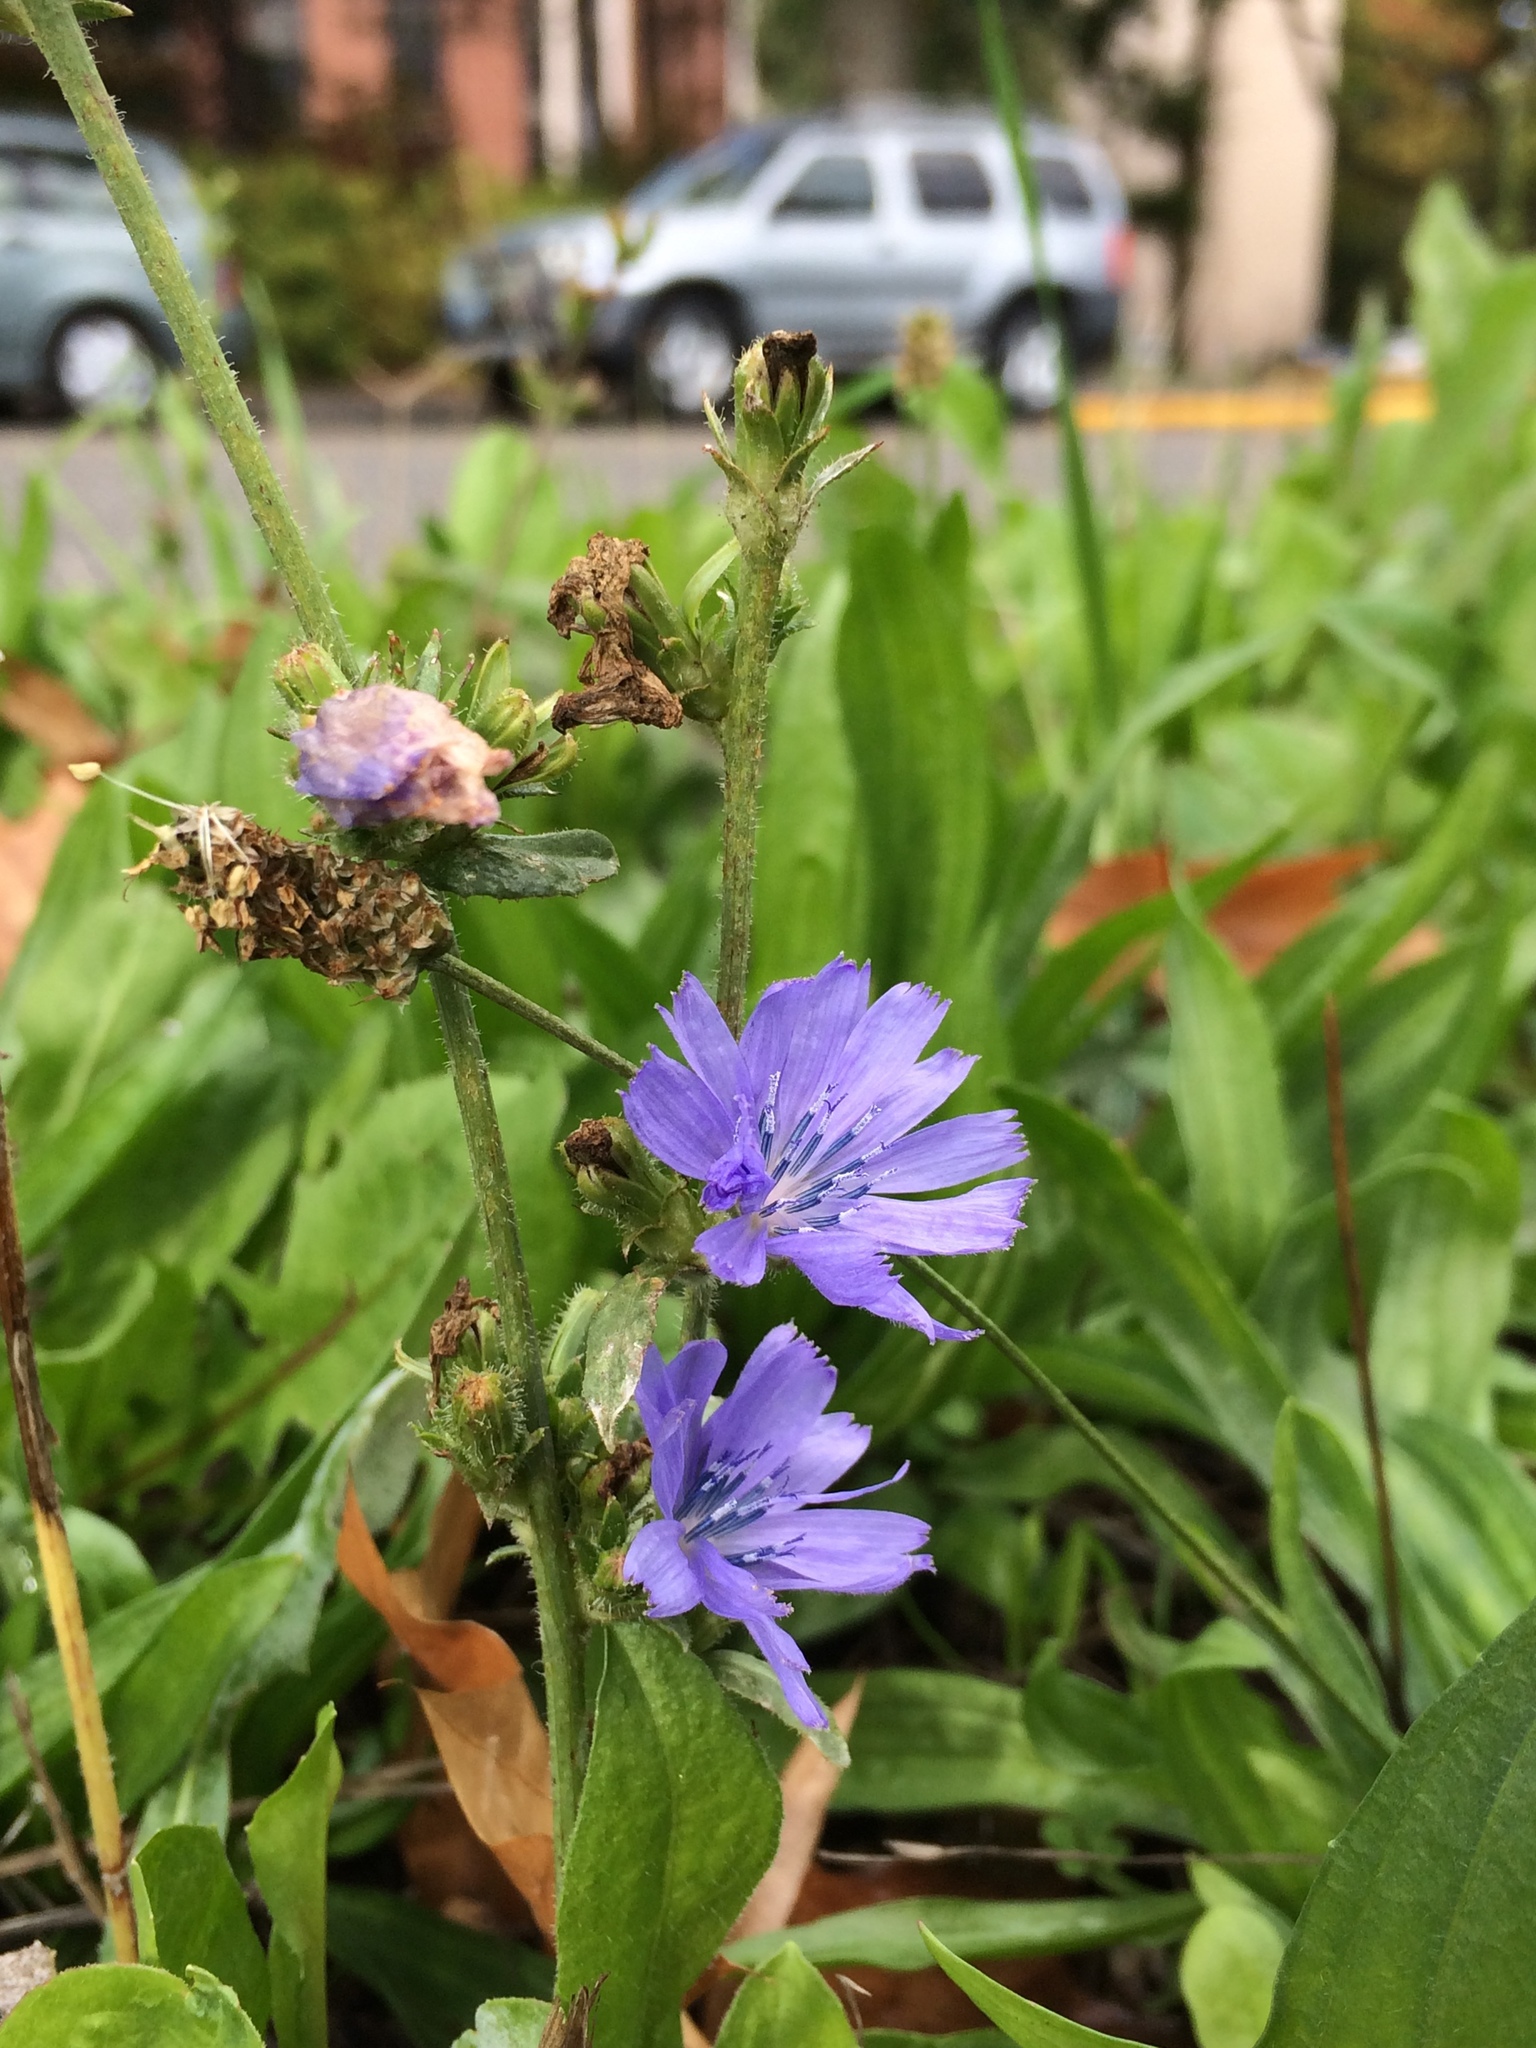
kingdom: Plantae
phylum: Tracheophyta
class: Magnoliopsida
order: Asterales
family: Asteraceae
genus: Cichorium
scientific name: Cichorium intybus
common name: Chicory
